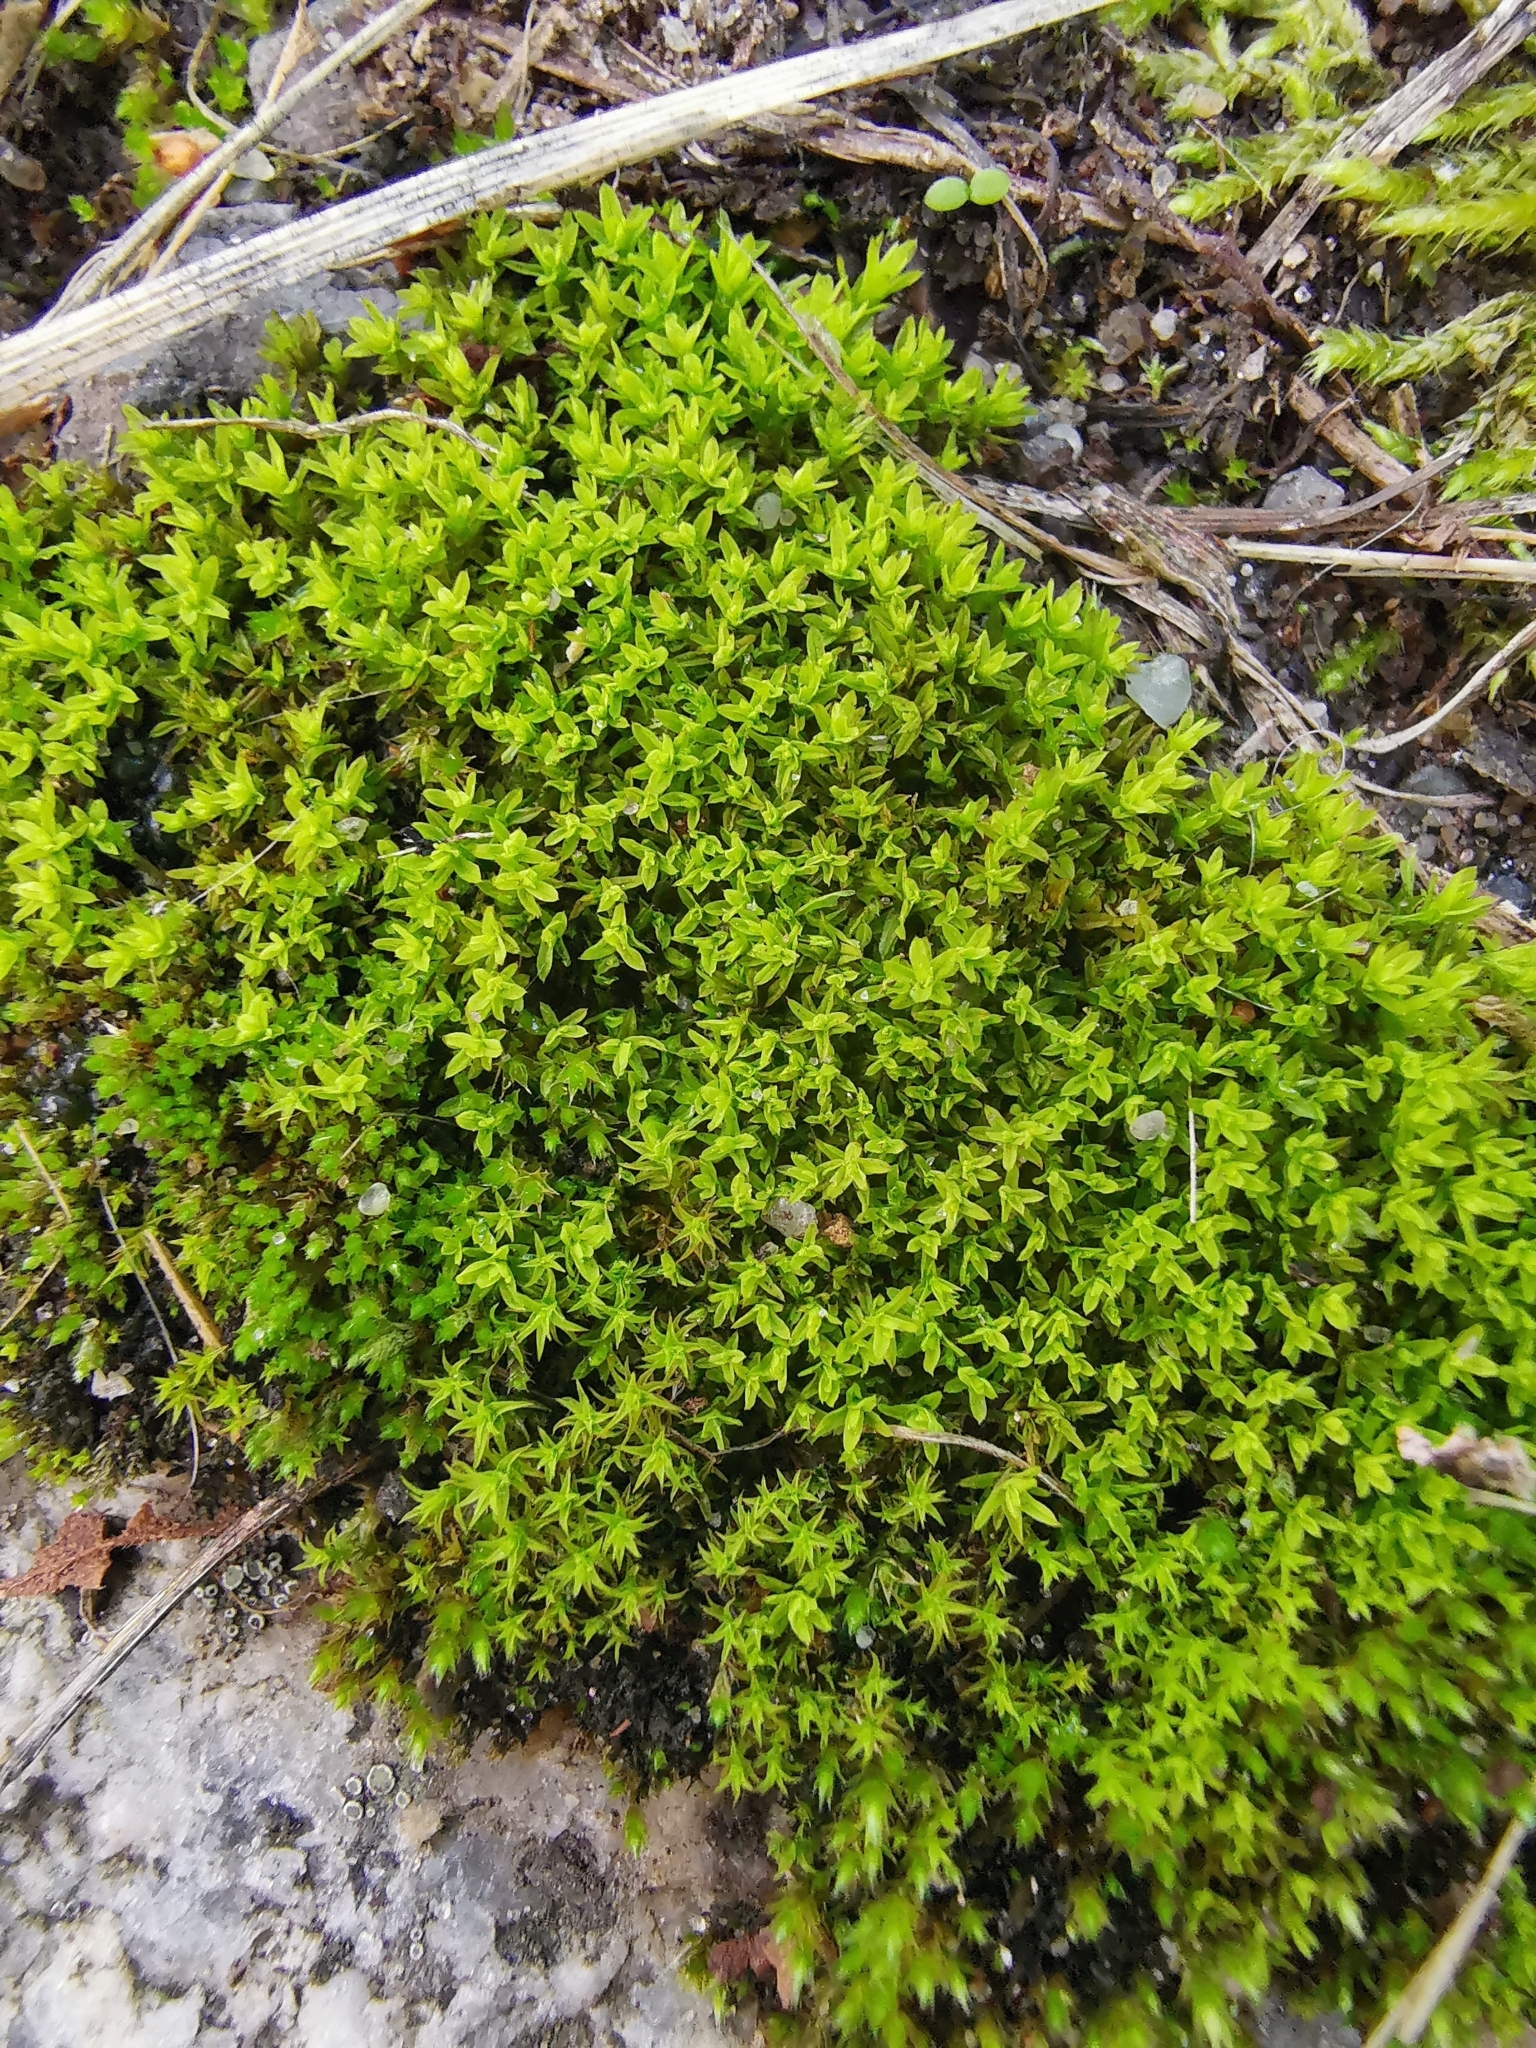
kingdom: Plantae
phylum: Bryophyta
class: Bryopsida
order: Pottiales
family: Pottiaceae
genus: Barbula
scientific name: Barbula unguiculata
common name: Prickly beard moss
